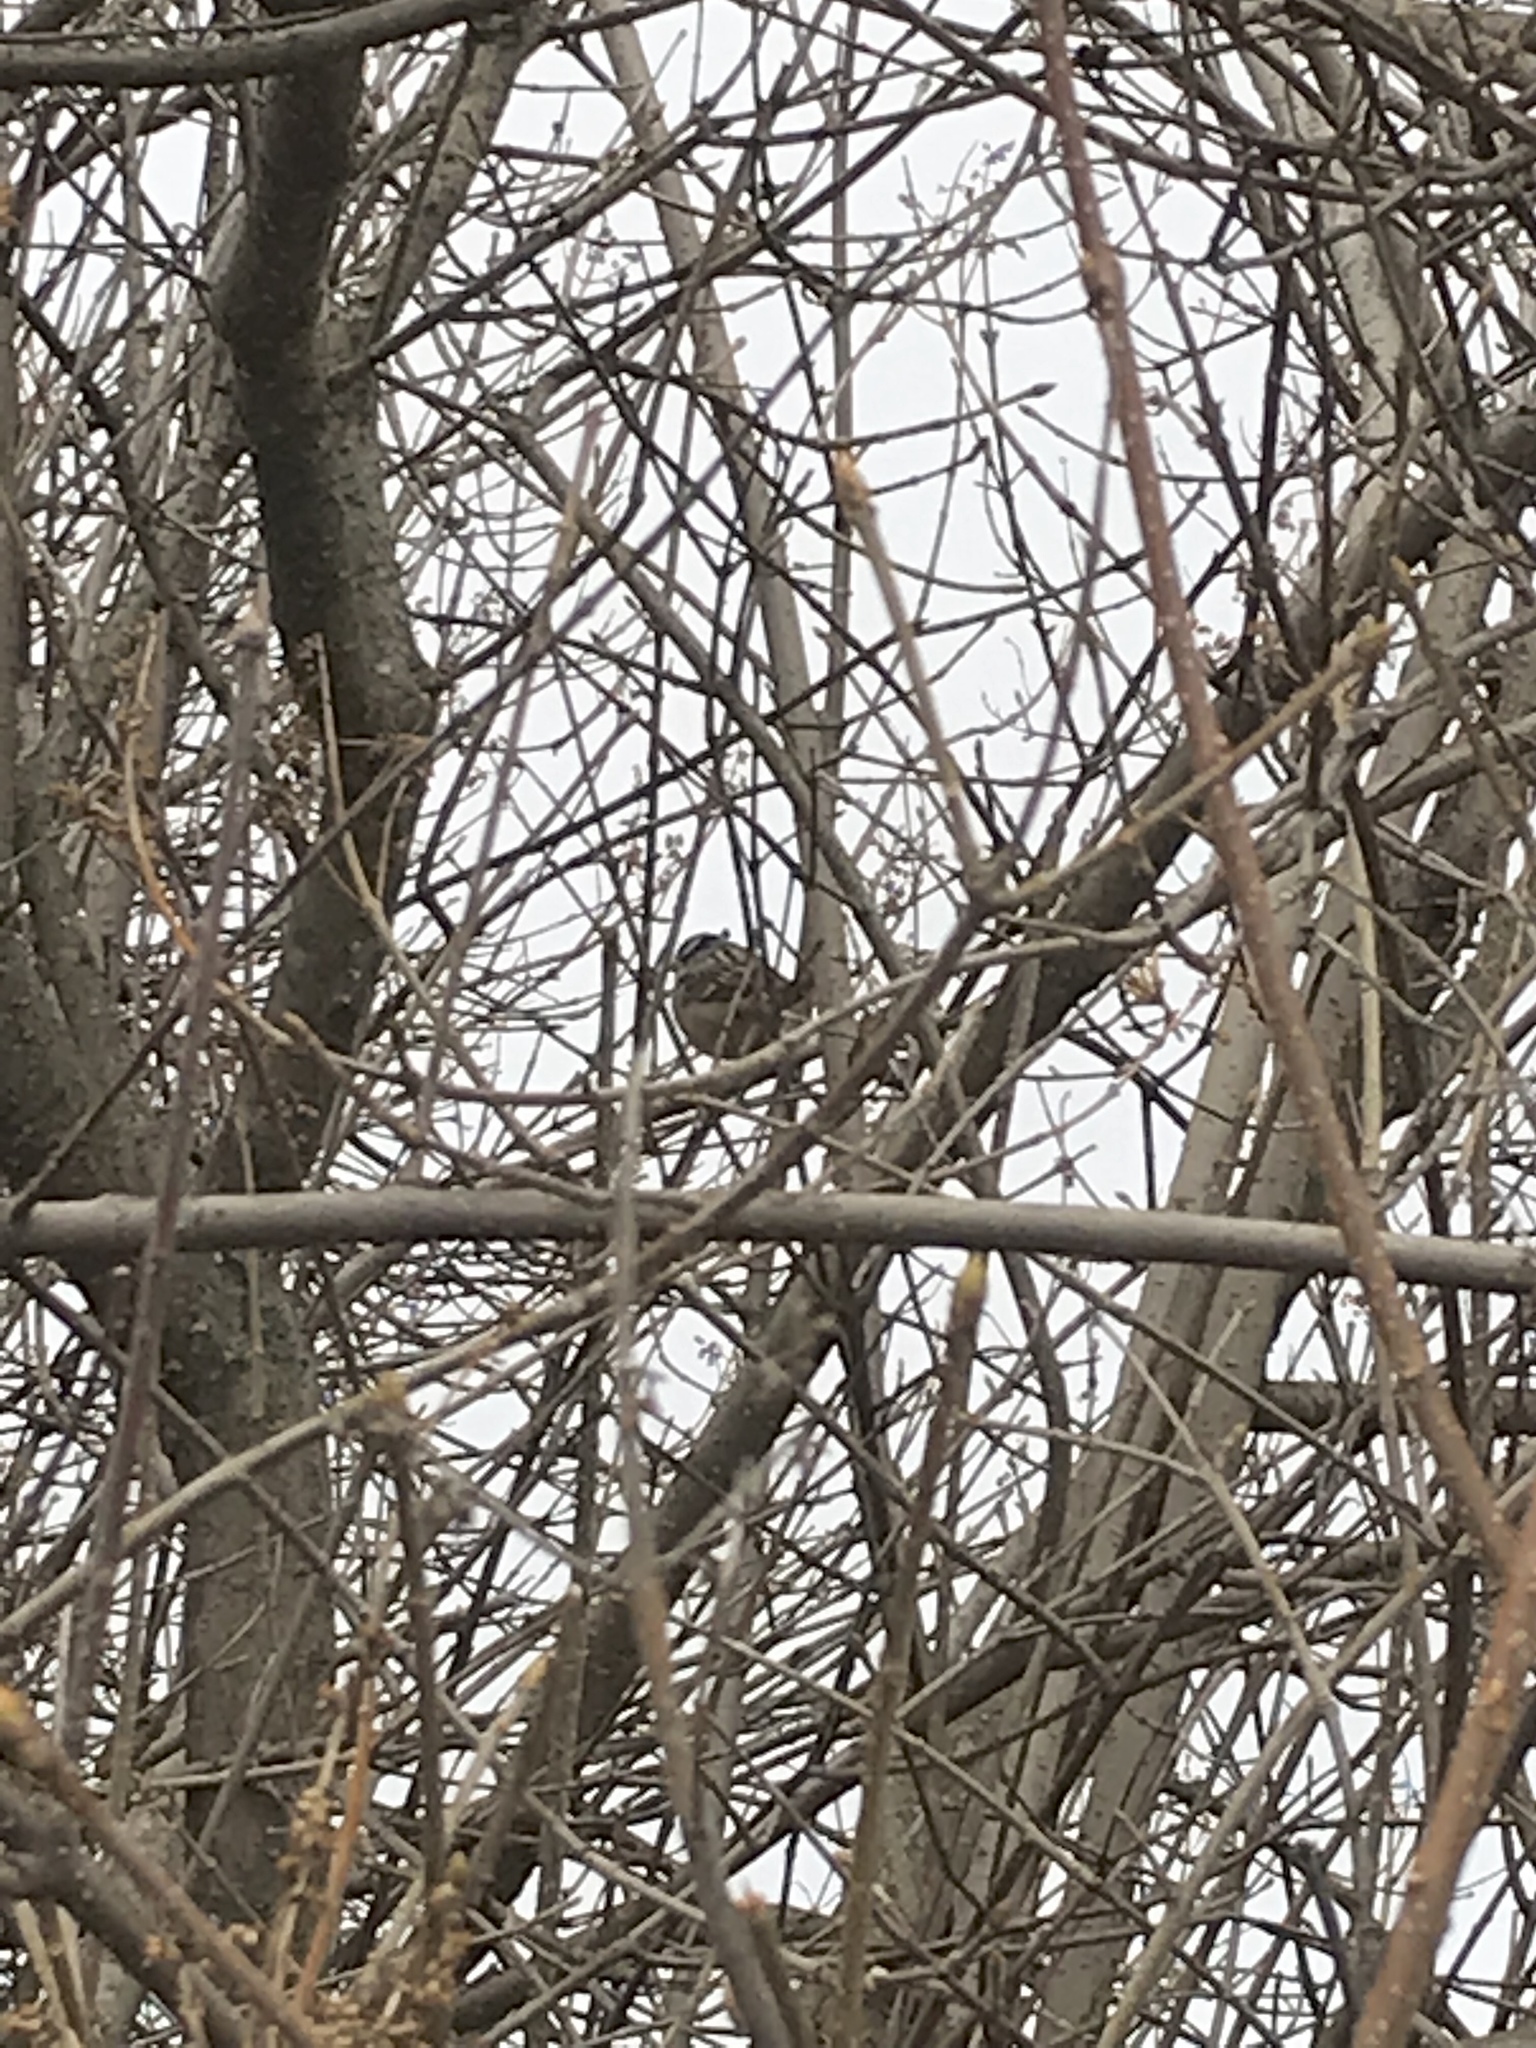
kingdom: Animalia
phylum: Chordata
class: Aves
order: Passeriformes
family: Passerellidae
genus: Zonotrichia
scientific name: Zonotrichia leucophrys
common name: White-crowned sparrow
